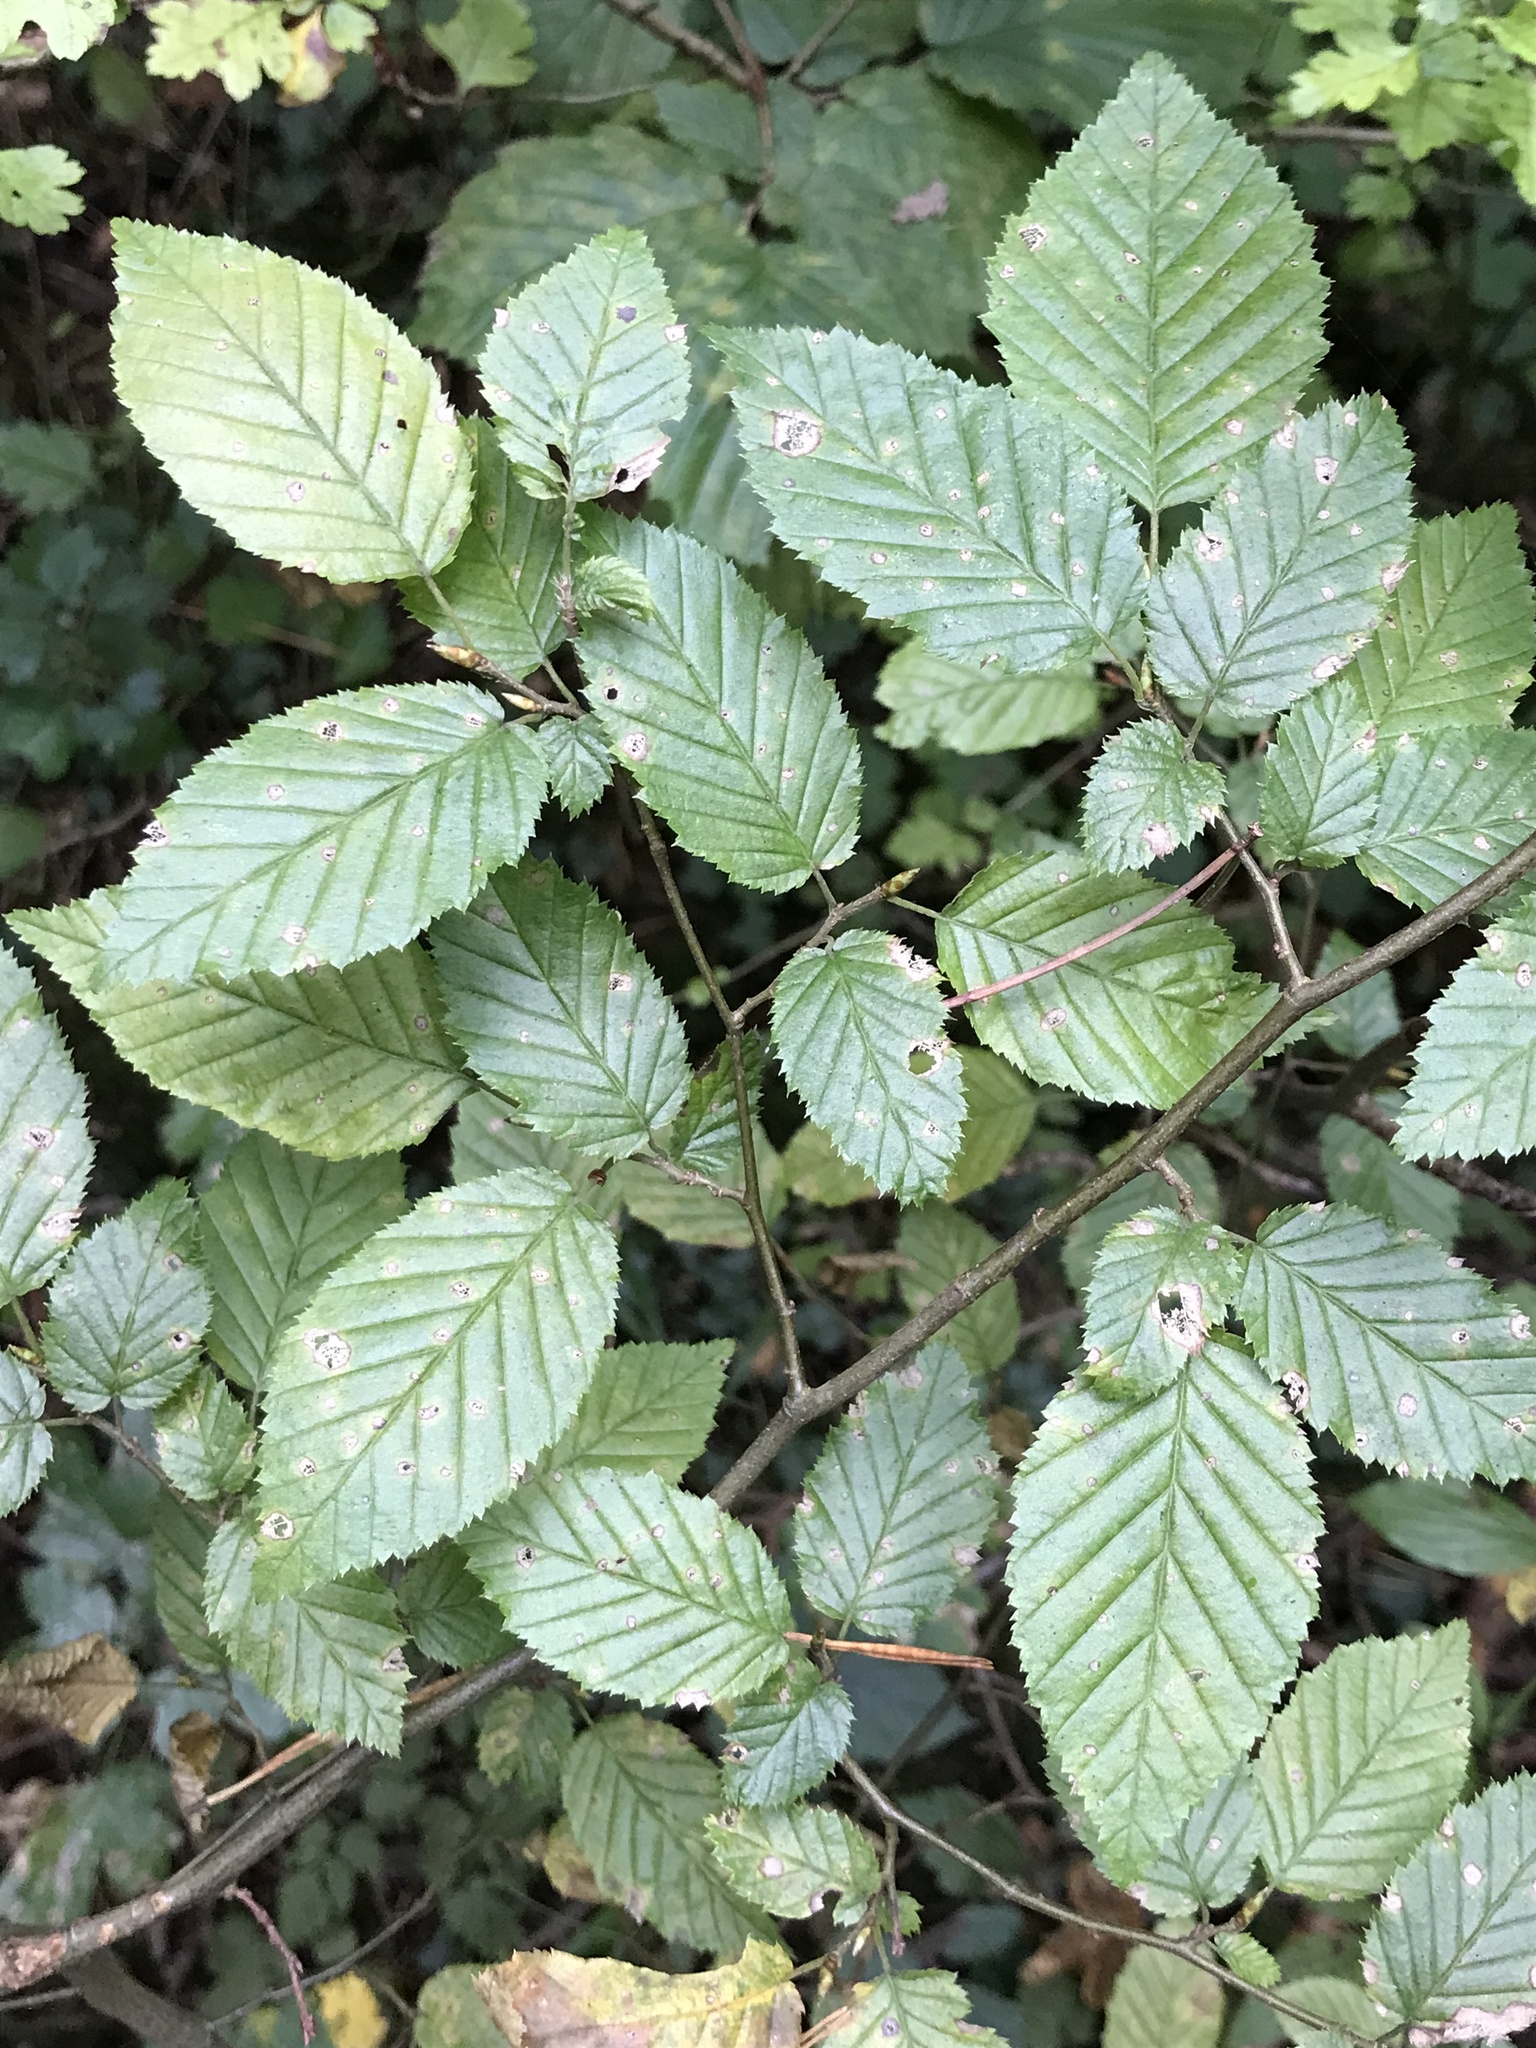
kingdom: Plantae
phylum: Tracheophyta
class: Magnoliopsida
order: Fagales
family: Betulaceae
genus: Carpinus
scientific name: Carpinus betulus
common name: Hornbeam
